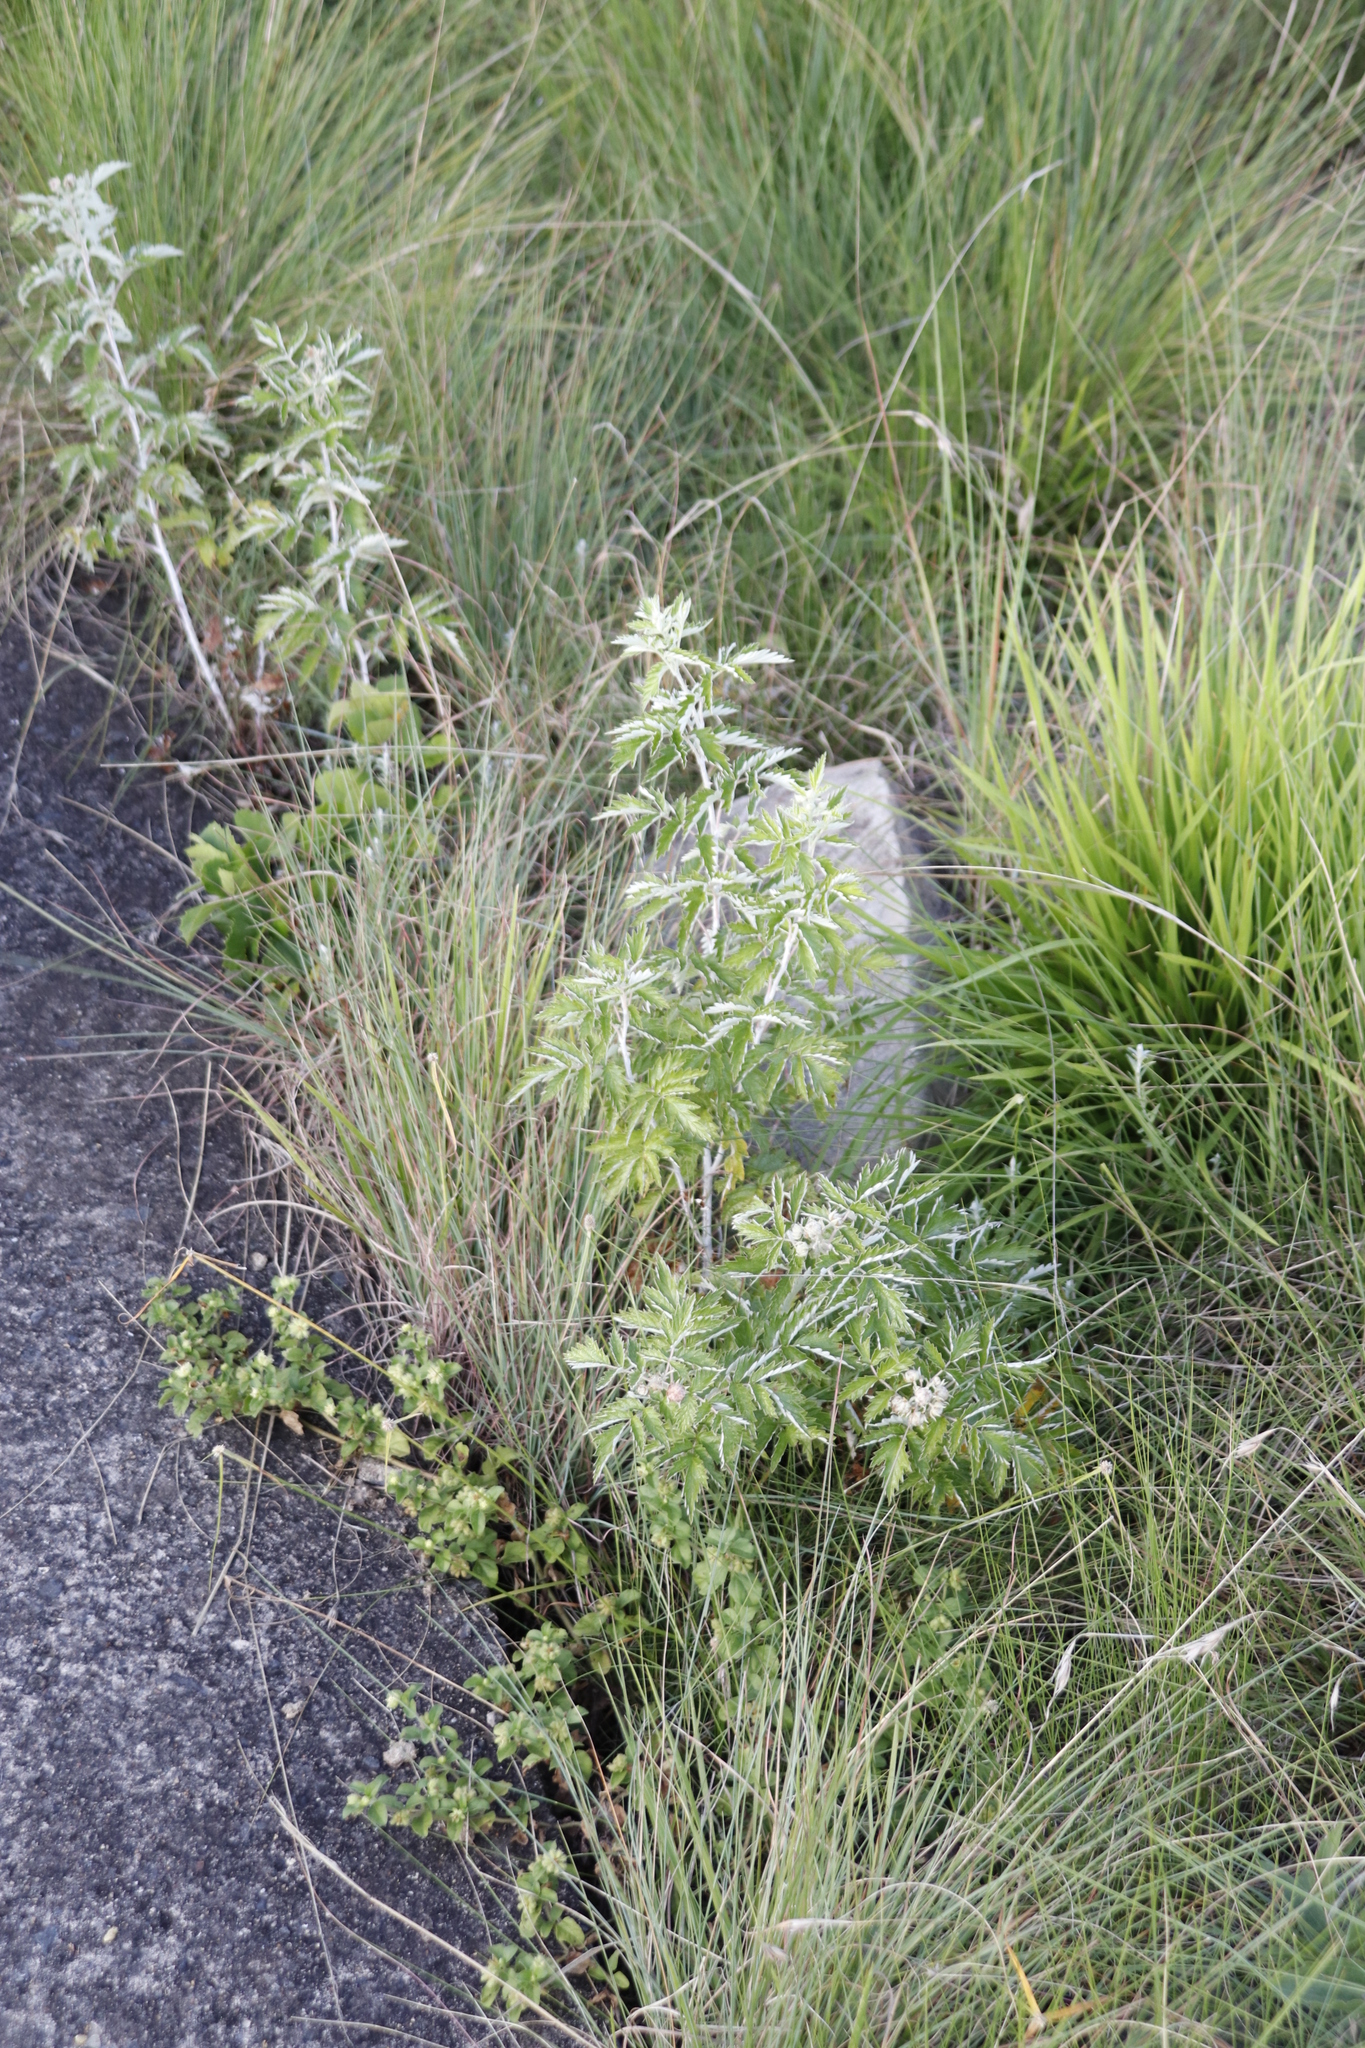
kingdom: Plantae
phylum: Tracheophyta
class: Magnoliopsida
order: Rosales
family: Rosaceae
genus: Rubus
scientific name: Rubus ludwigii
